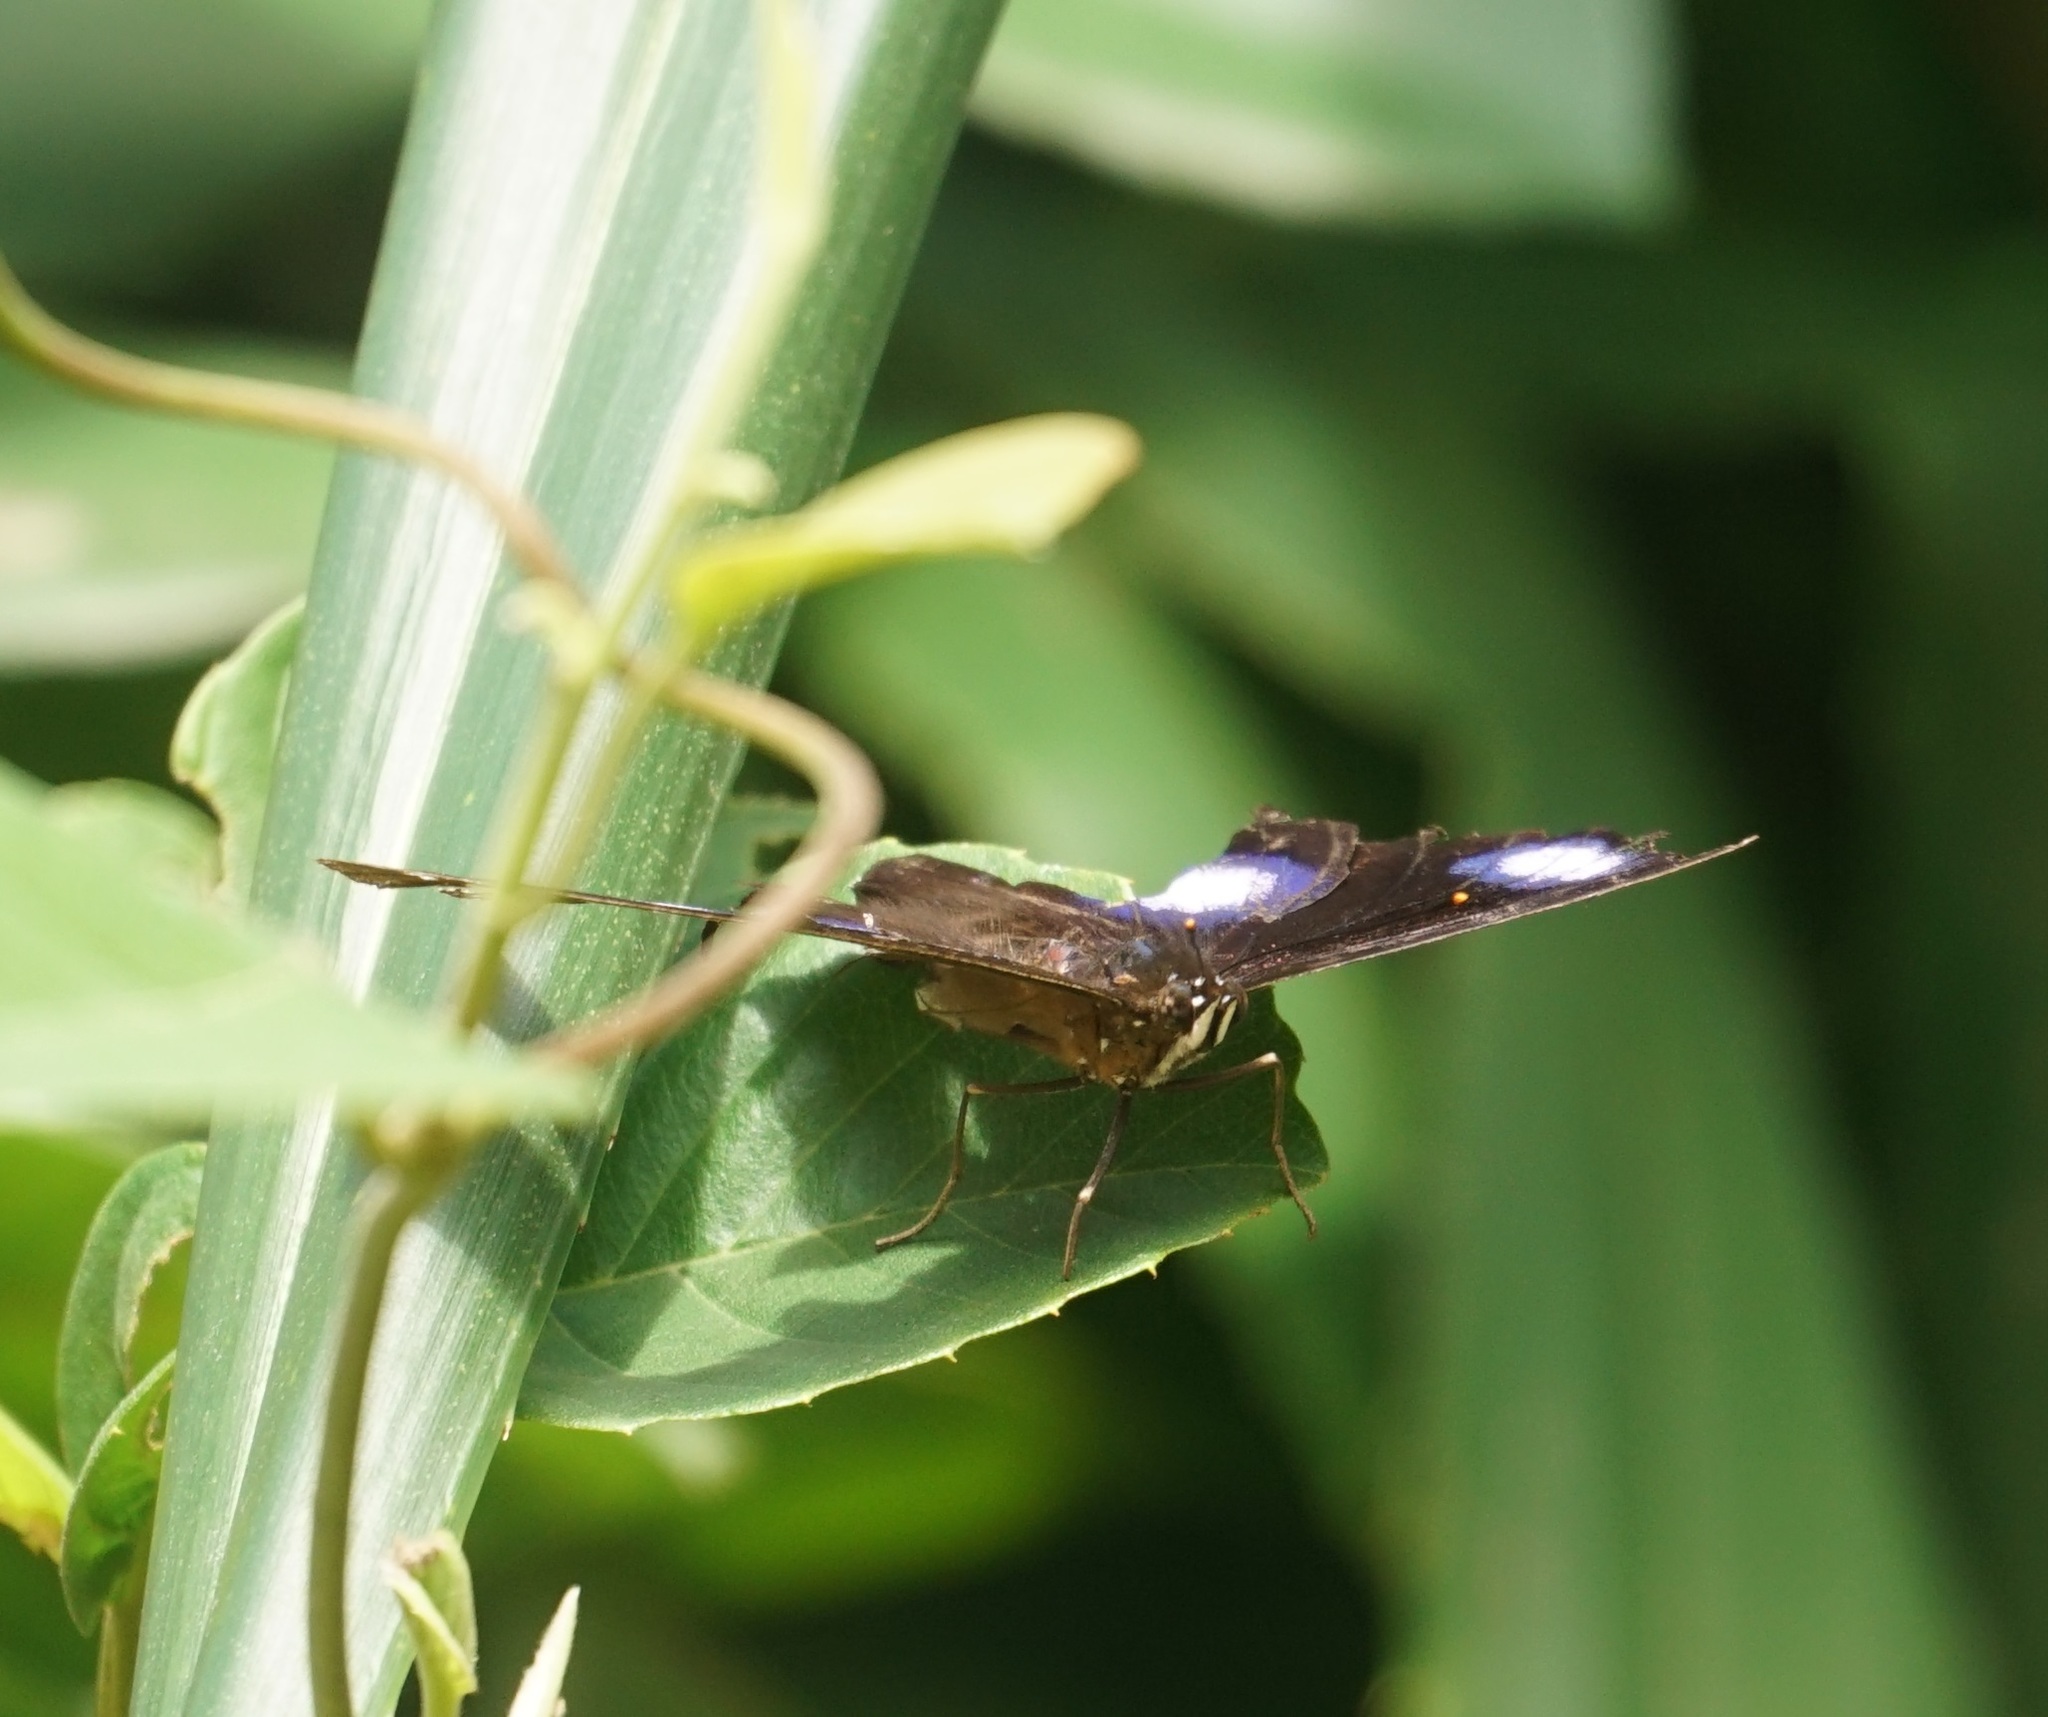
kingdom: Animalia
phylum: Arthropoda
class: Insecta
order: Lepidoptera
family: Nymphalidae
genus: Hypolimnas
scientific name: Hypolimnas bolina
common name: Great eggfly
